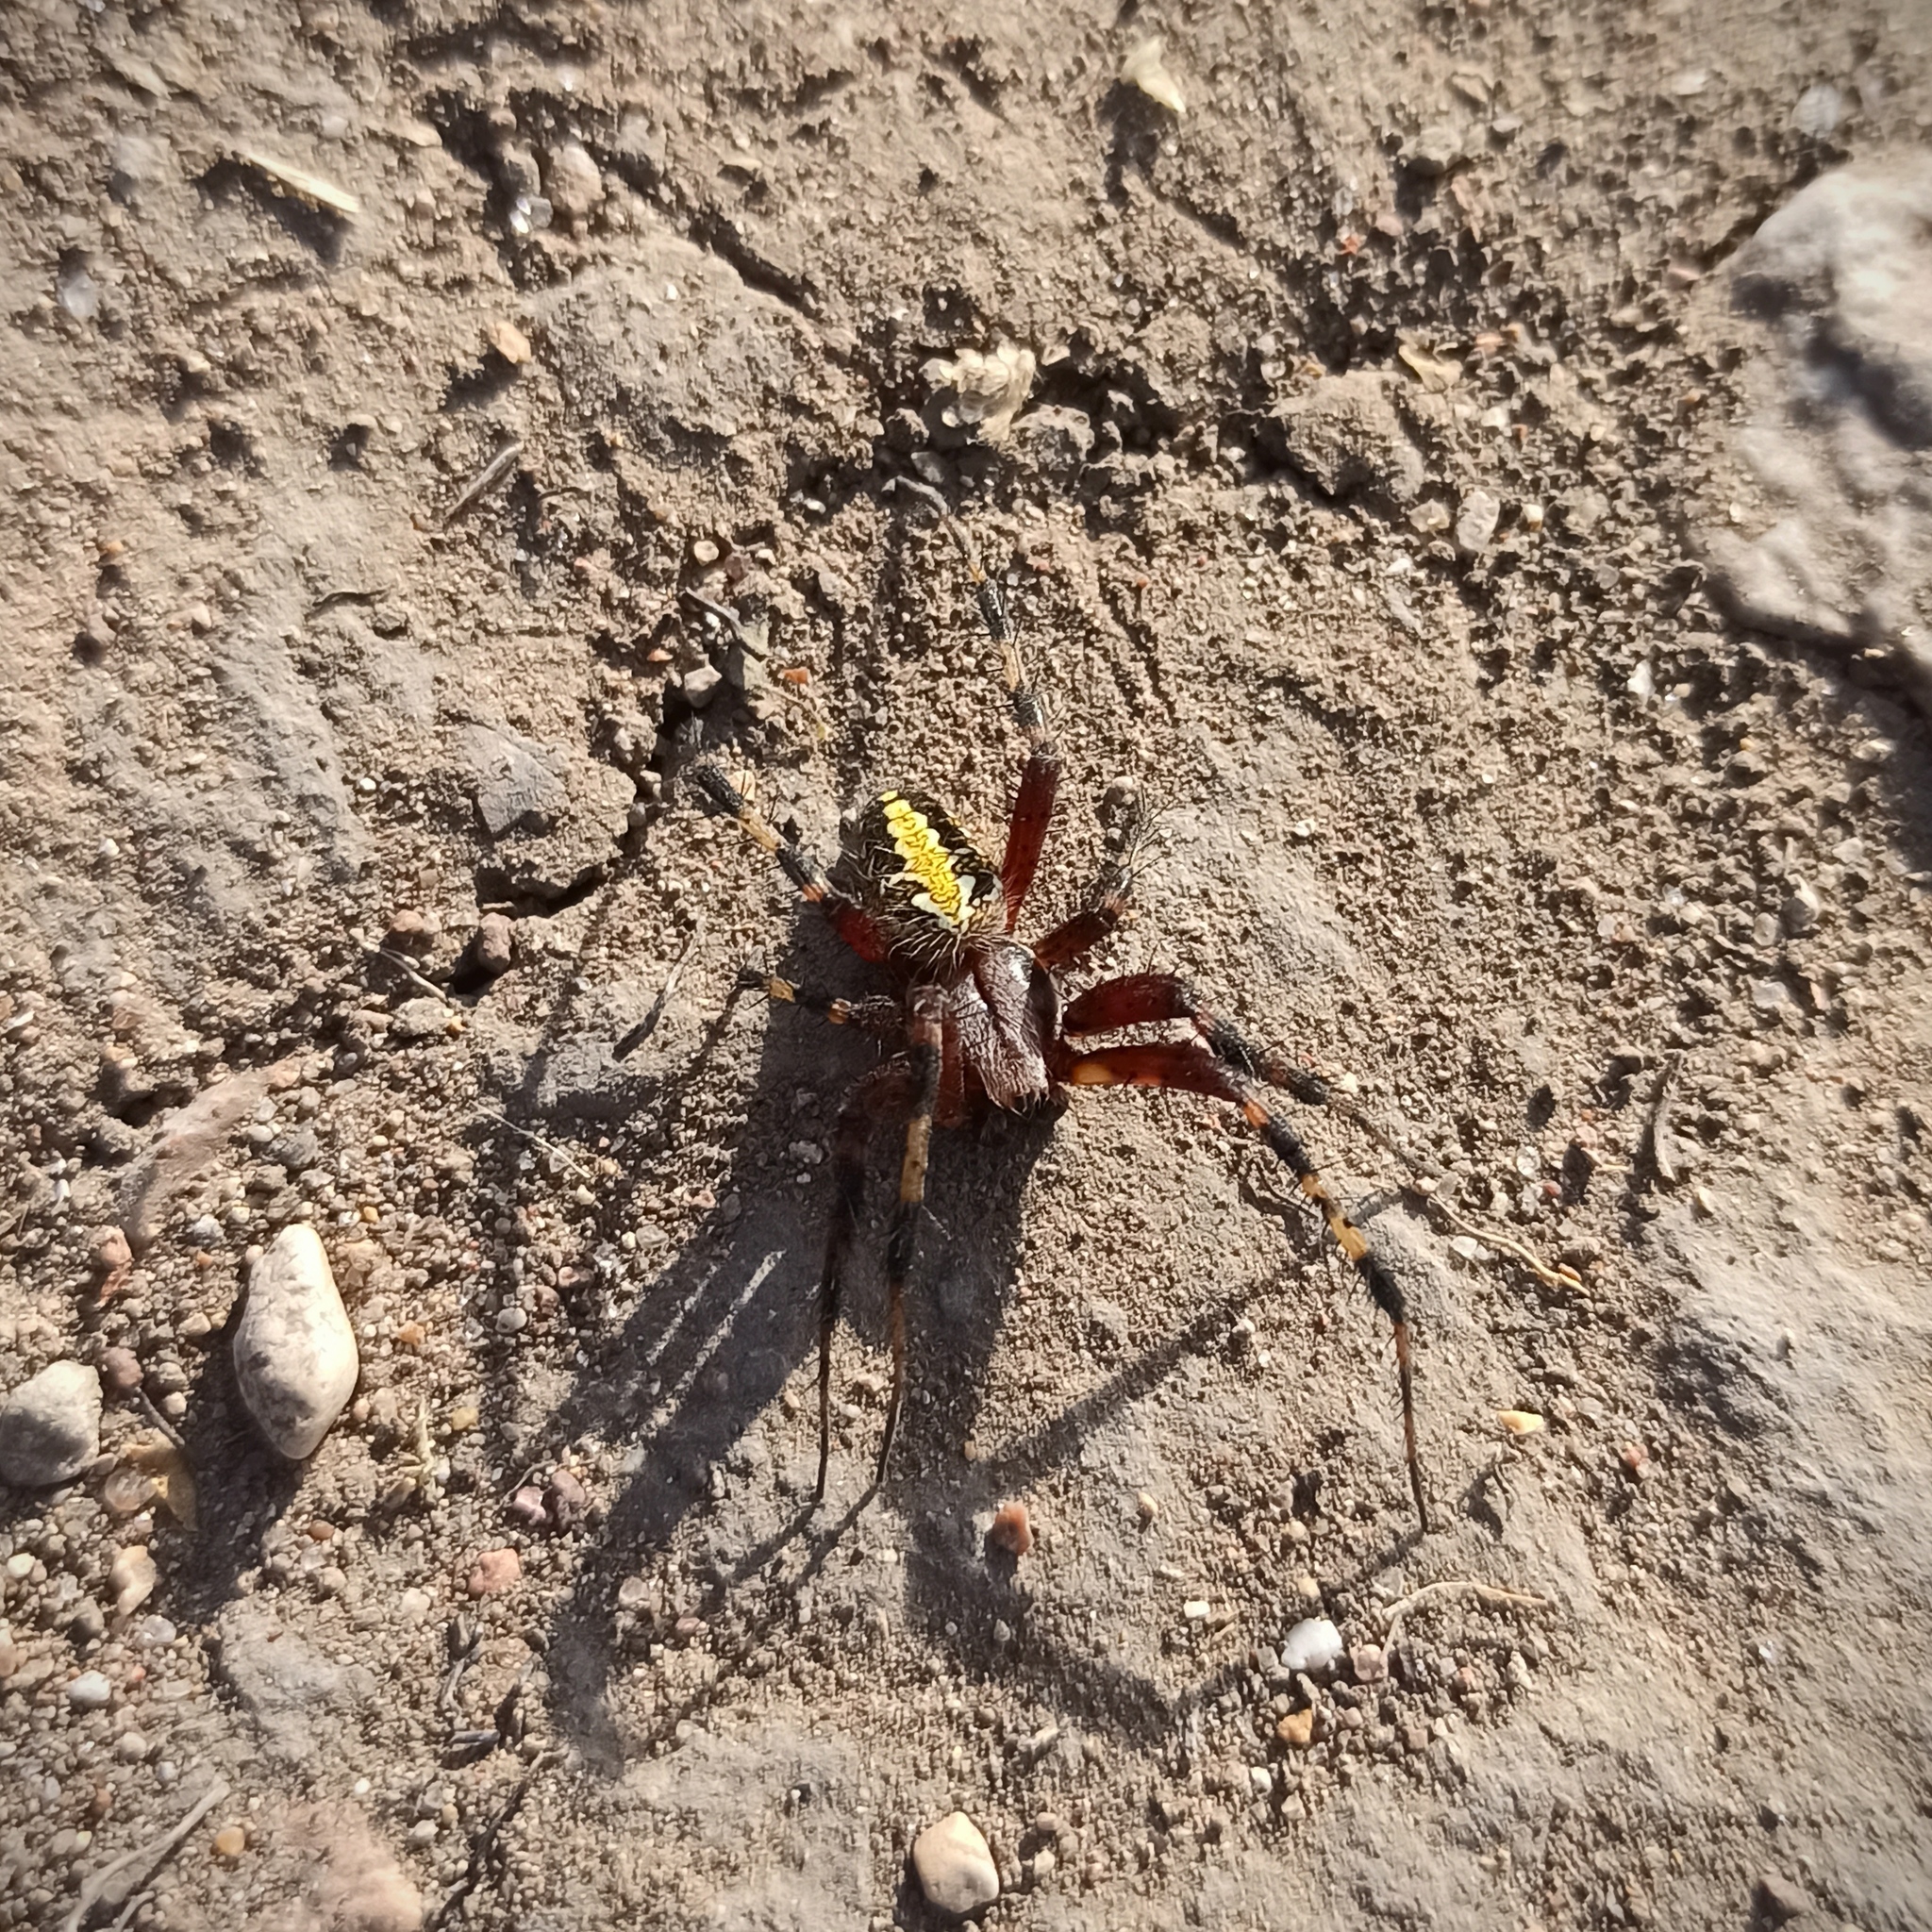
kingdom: Animalia
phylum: Arthropoda
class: Arachnida
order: Araneae
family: Araneidae
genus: Neoscona
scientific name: Neoscona oaxacensis
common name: Orb weavers
